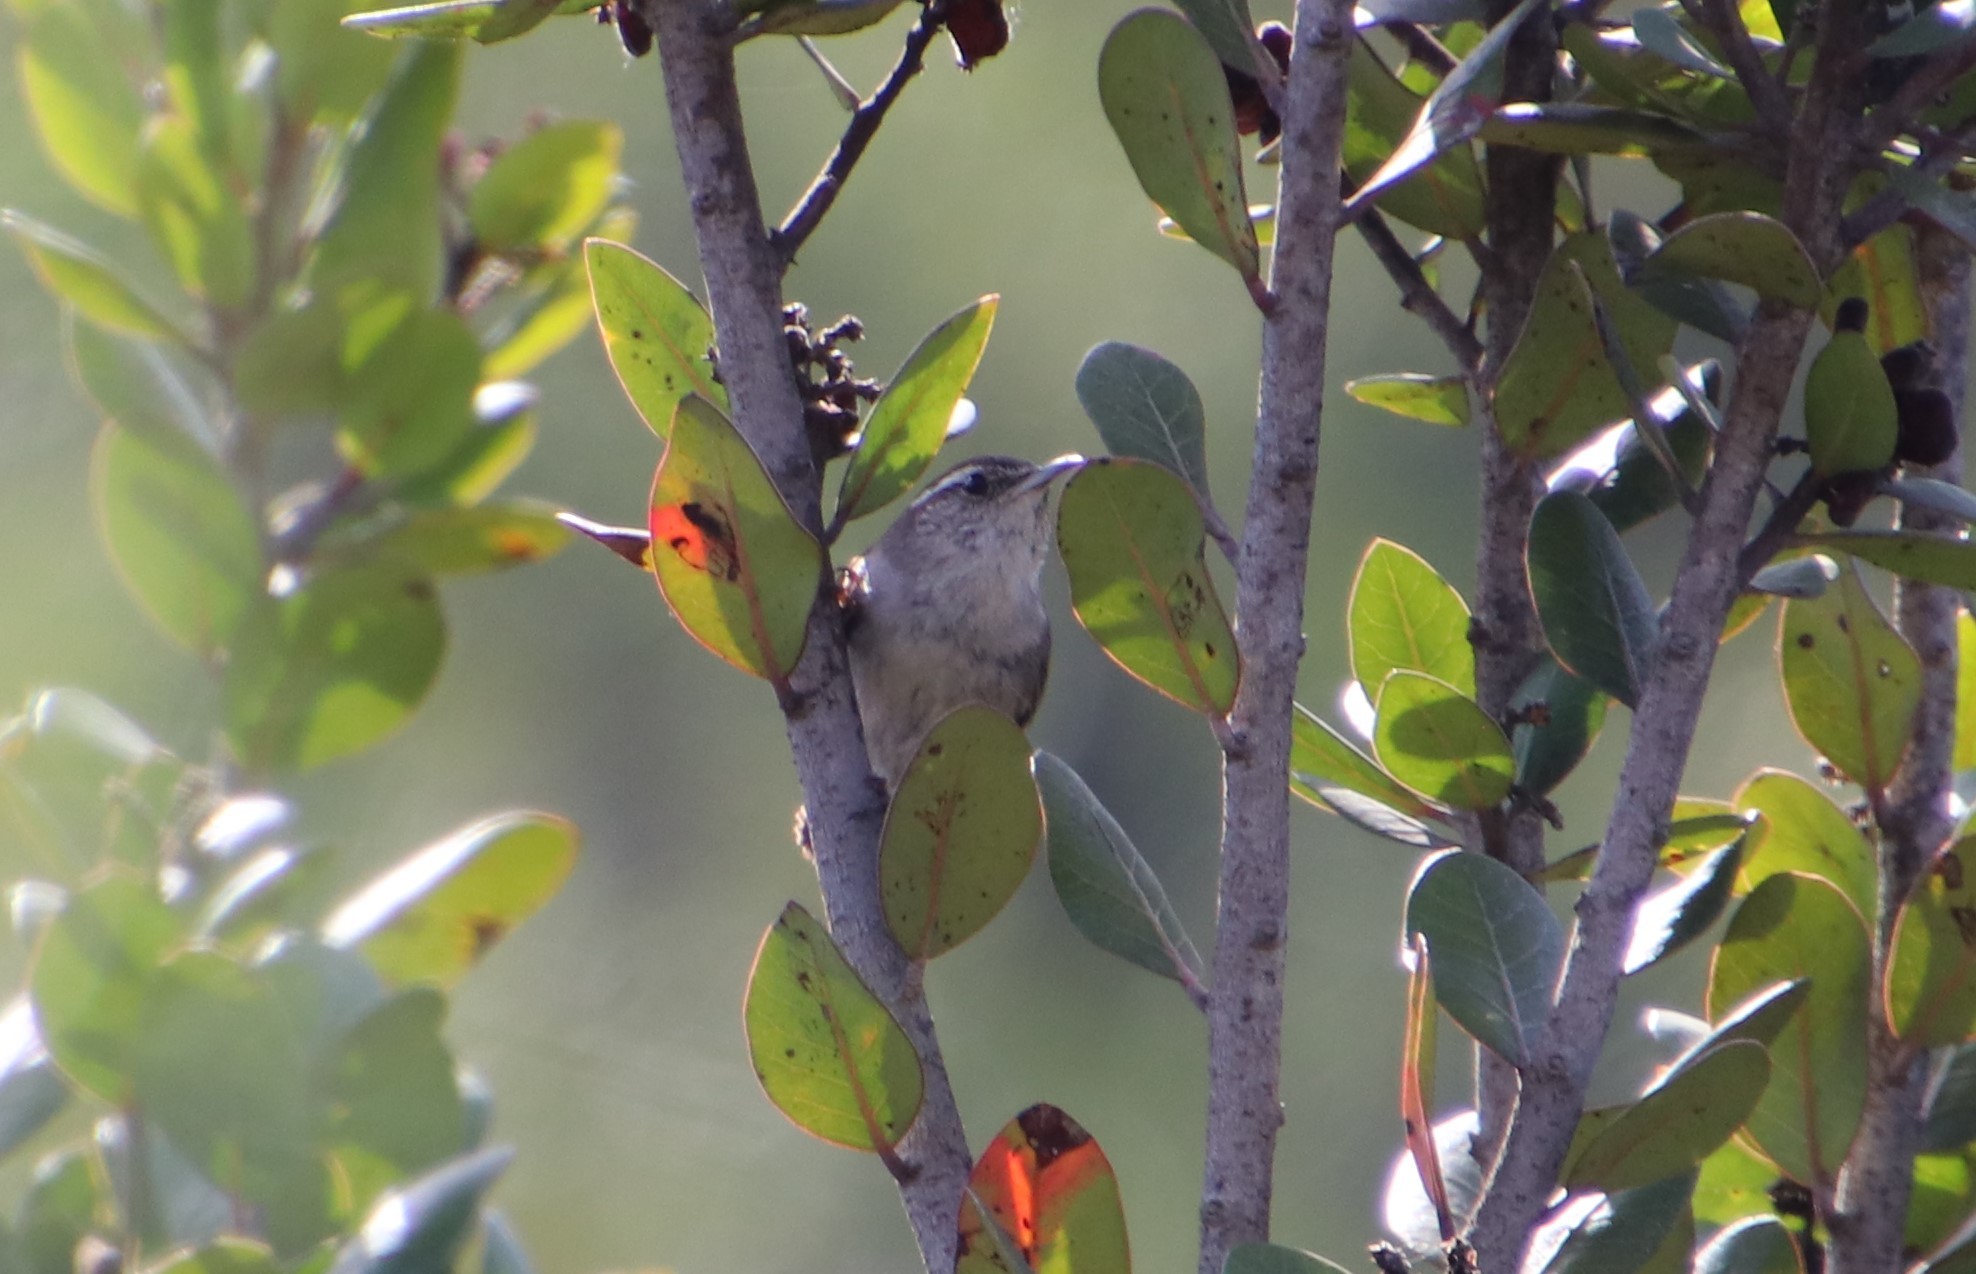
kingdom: Animalia
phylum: Chordata
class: Aves
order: Passeriformes
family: Troglodytidae
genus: Thryomanes
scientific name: Thryomanes bewickii
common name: Bewick's wren
